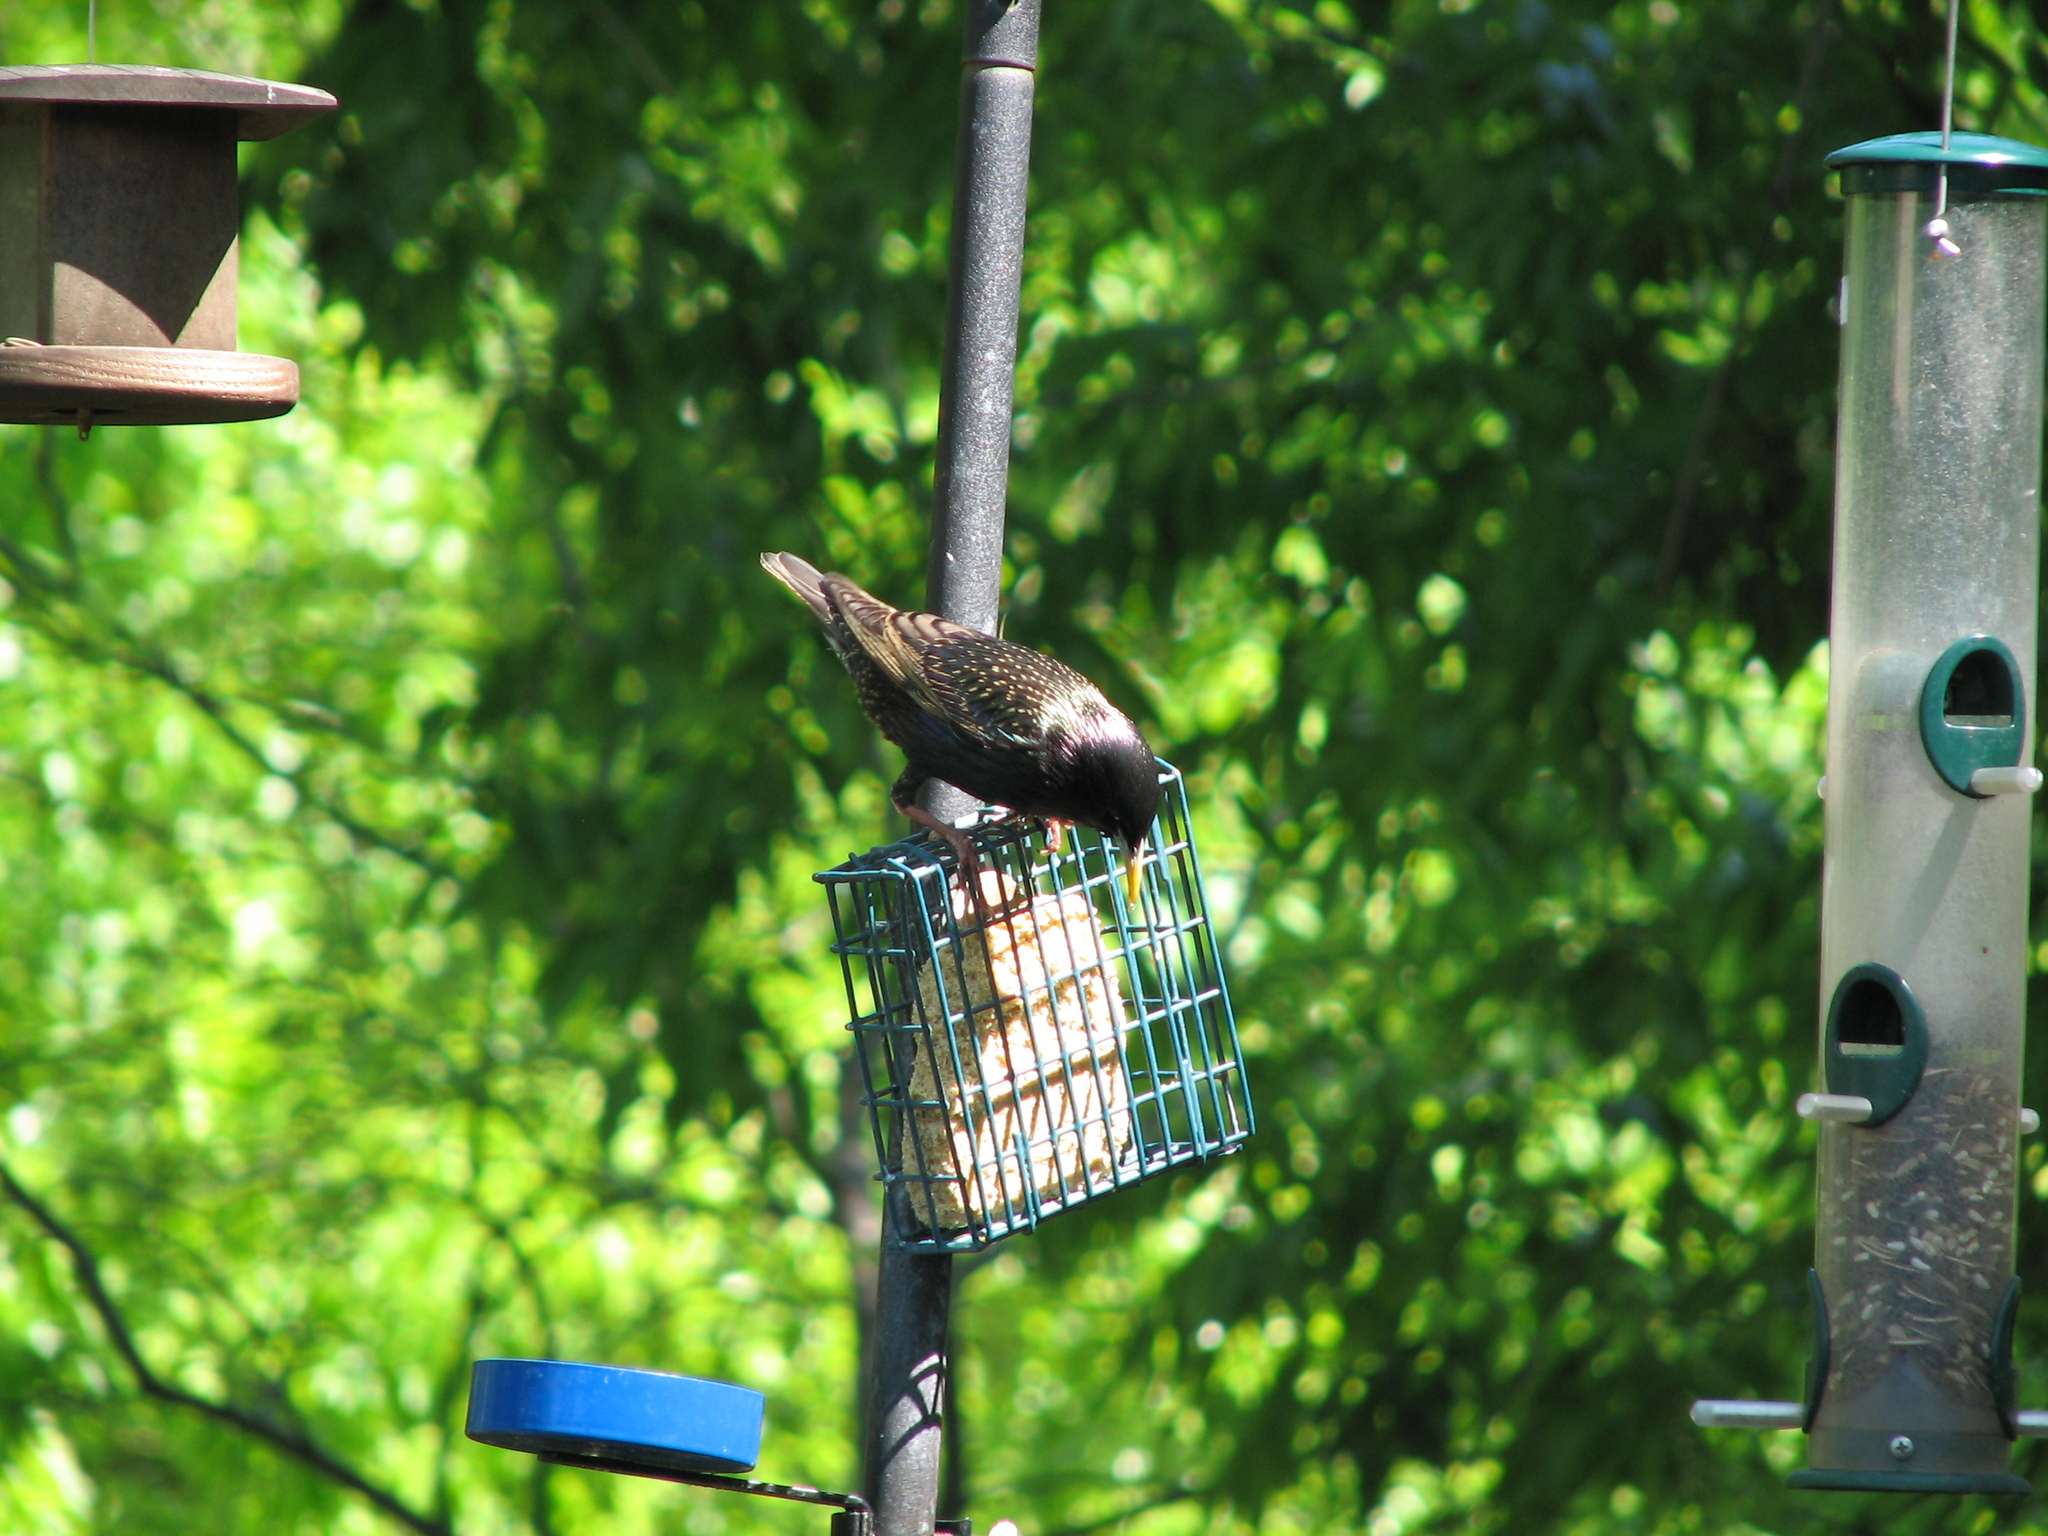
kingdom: Animalia
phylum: Chordata
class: Aves
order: Passeriformes
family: Sturnidae
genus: Sturnus
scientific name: Sturnus vulgaris
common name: Common starling
